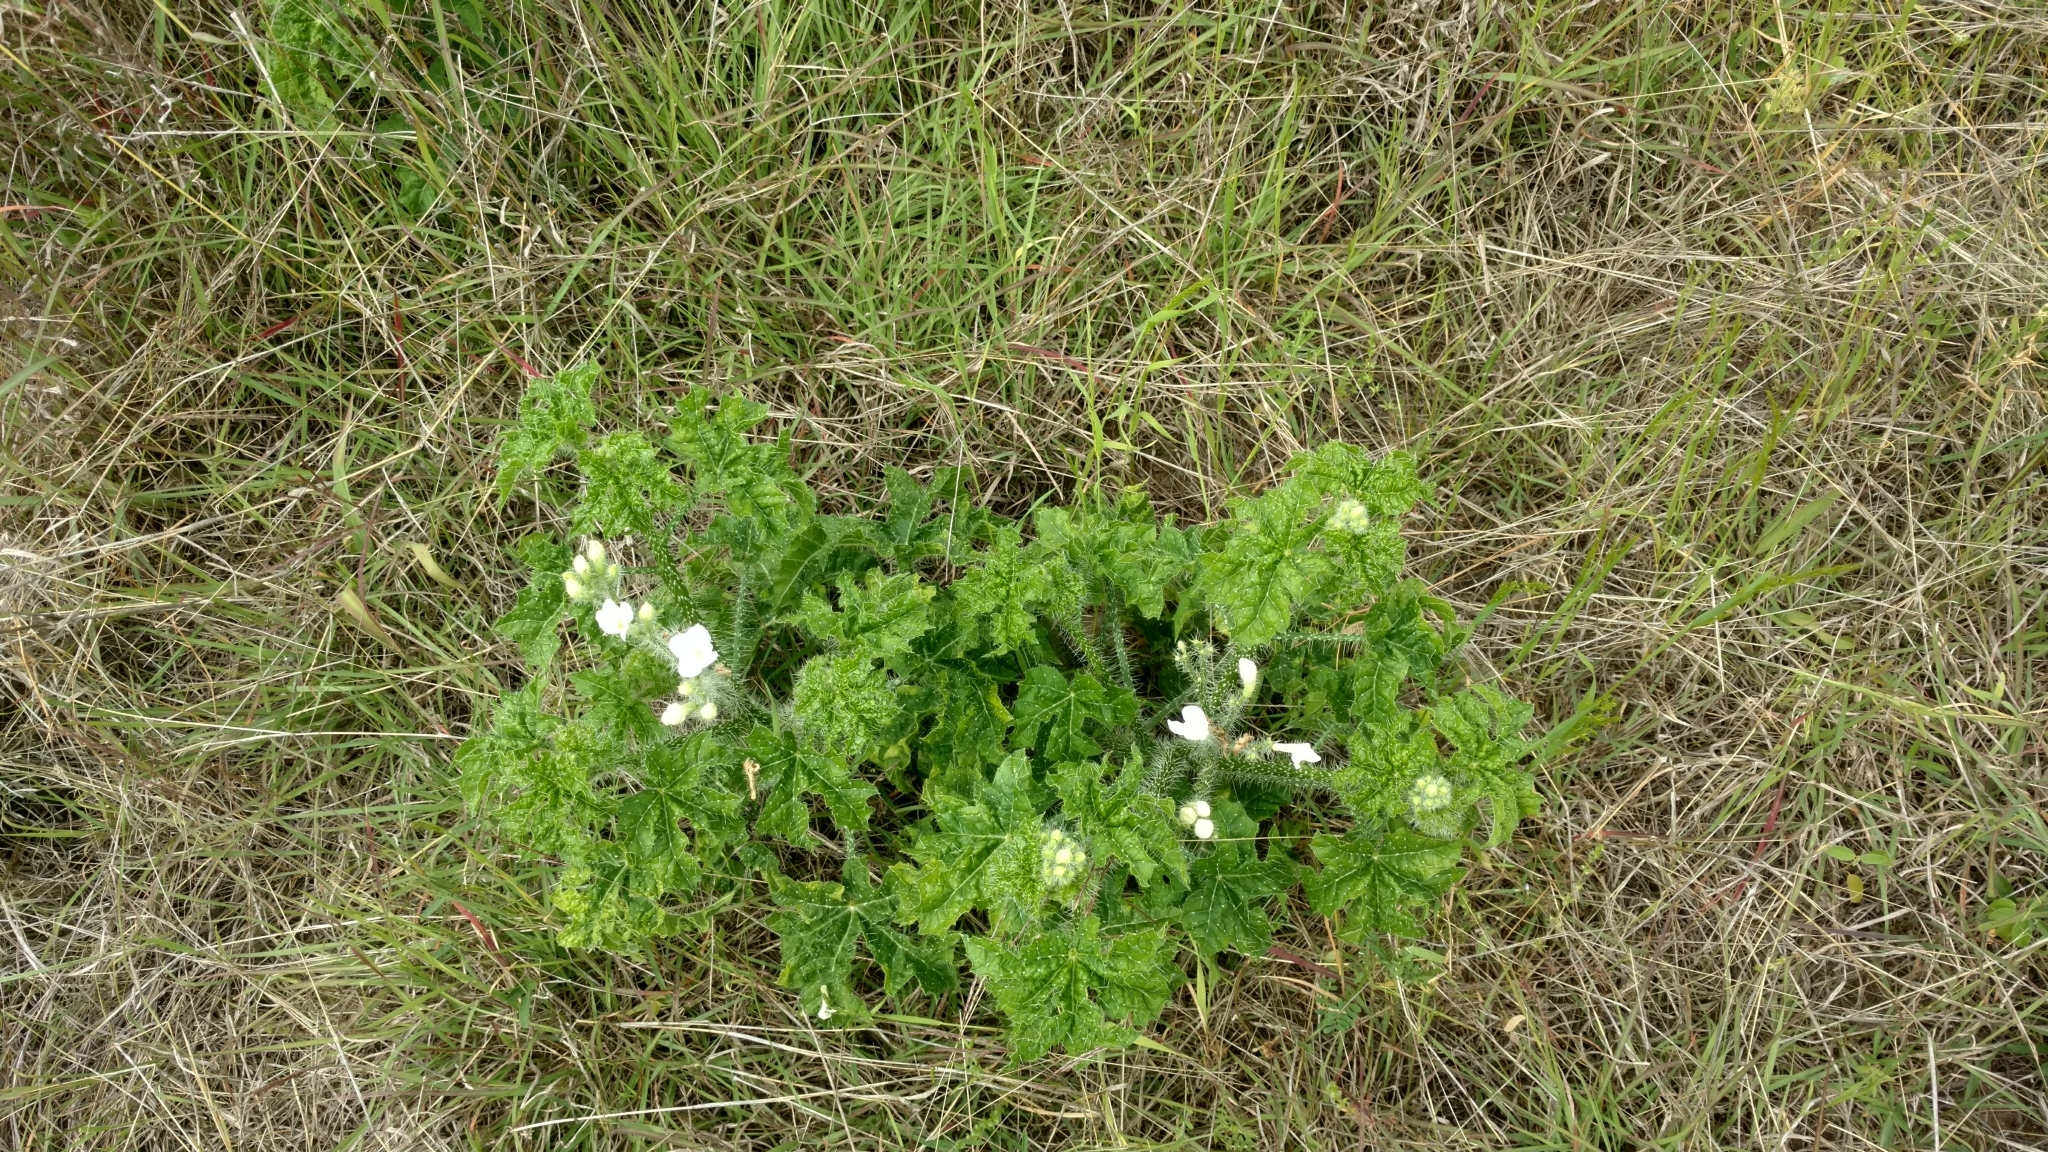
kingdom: Plantae
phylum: Tracheophyta
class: Magnoliopsida
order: Malpighiales
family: Euphorbiaceae
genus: Cnidoscolus
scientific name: Cnidoscolus texanus
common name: Texas bull-nettle
